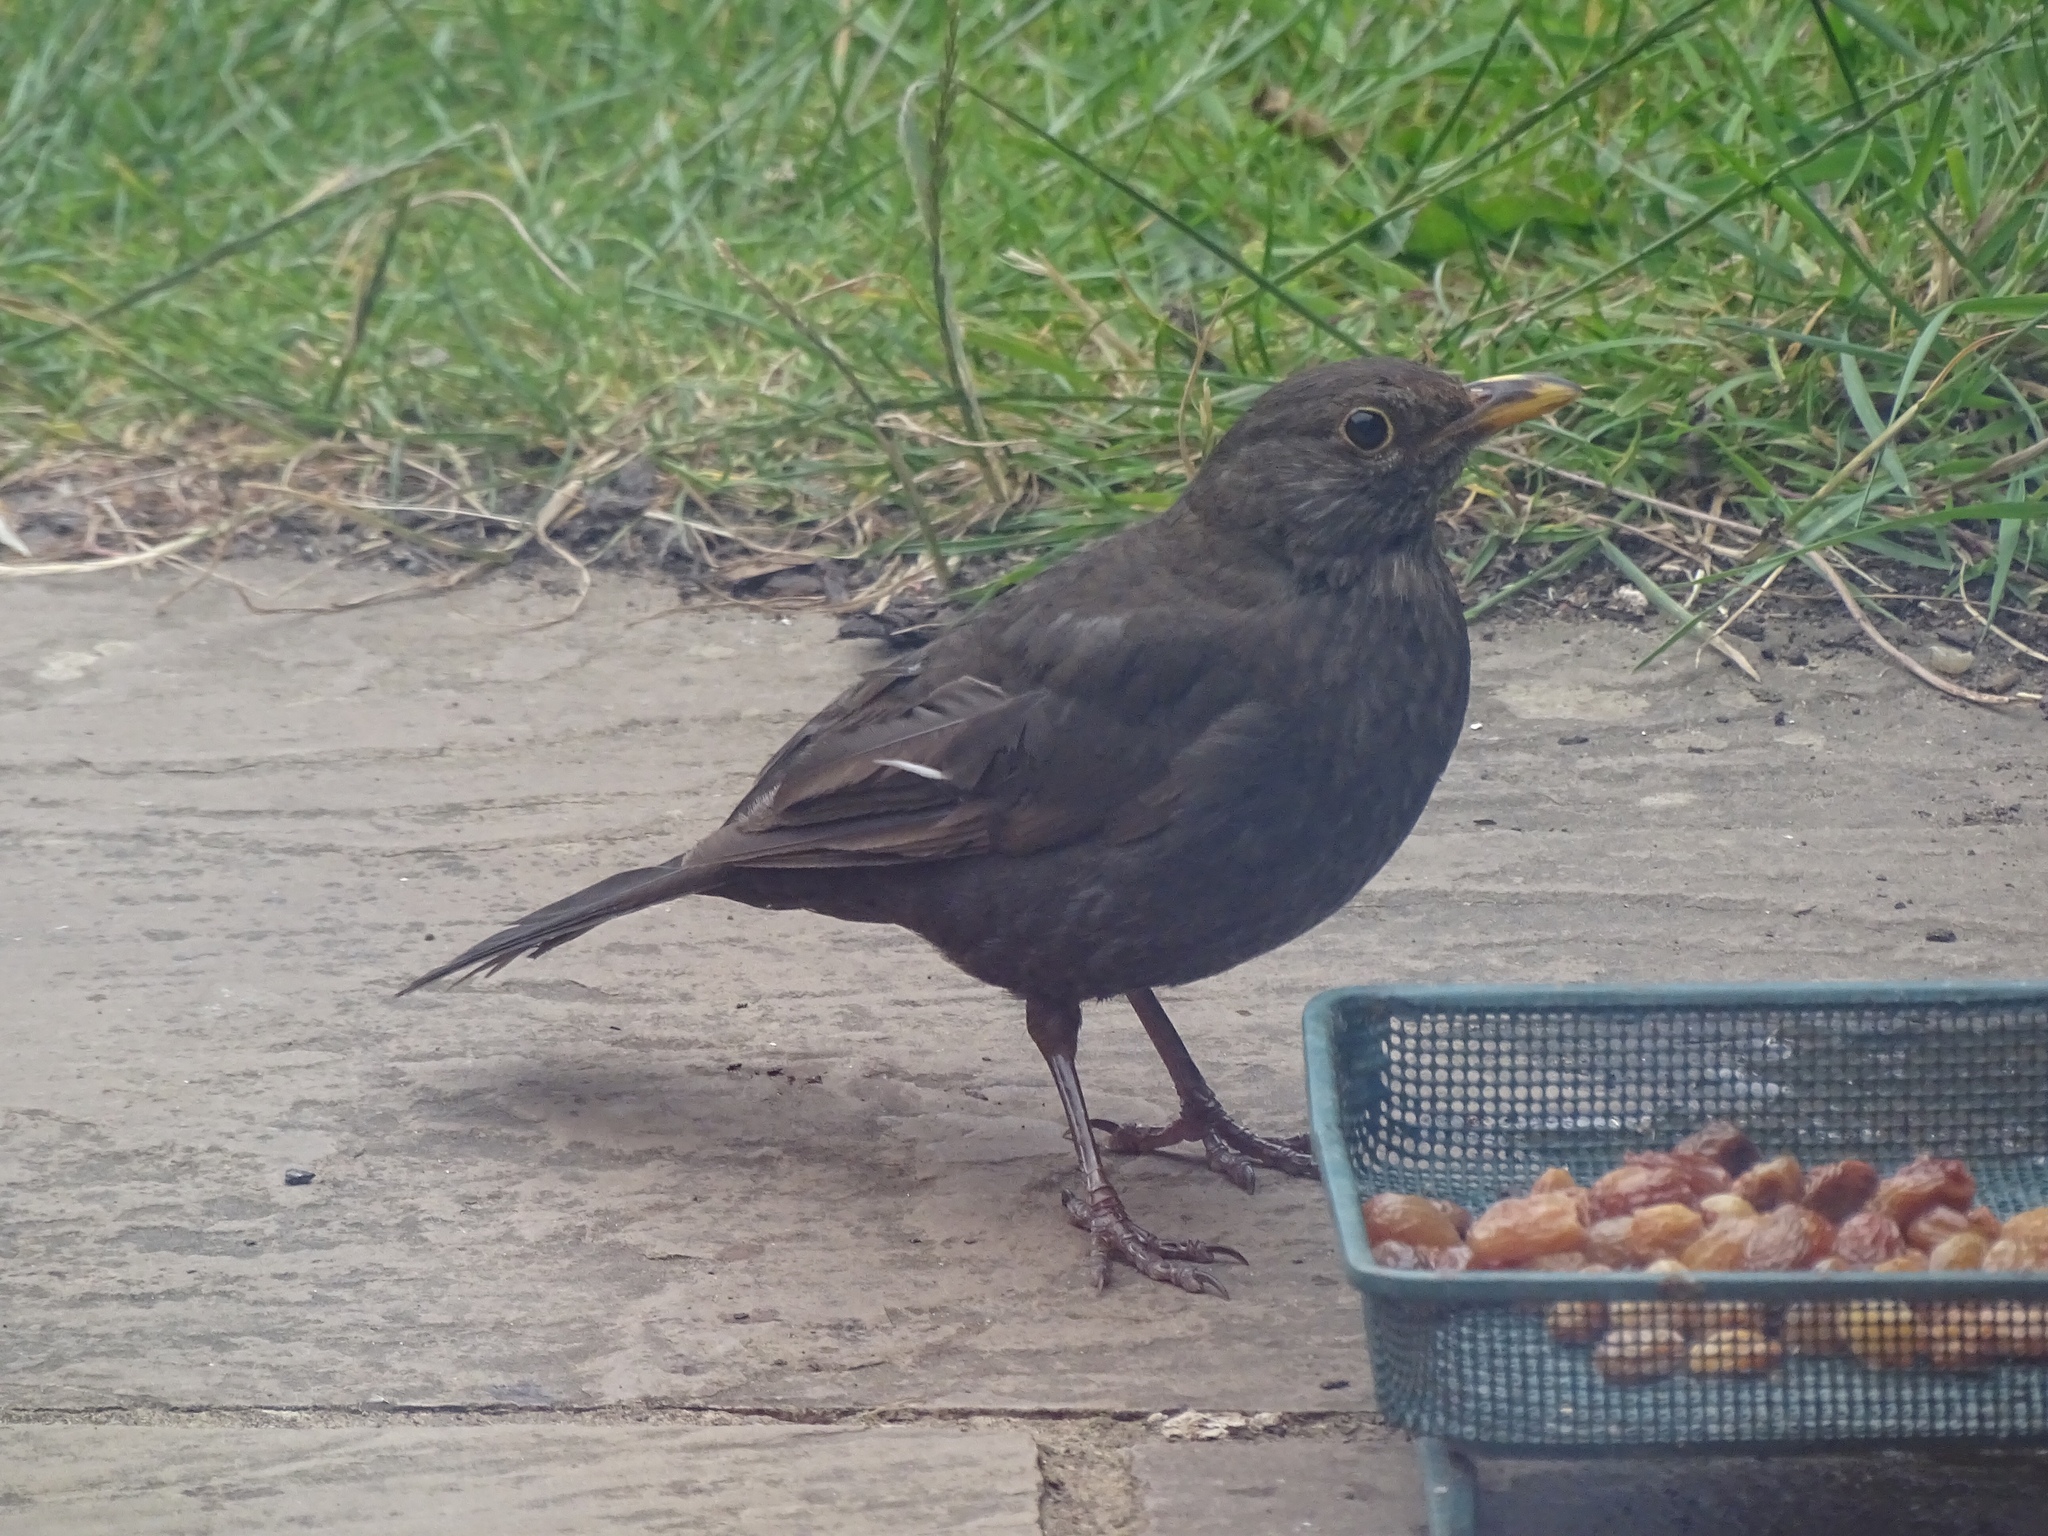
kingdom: Animalia
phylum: Chordata
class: Aves
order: Passeriformes
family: Turdidae
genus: Turdus
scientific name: Turdus merula
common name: Common blackbird
